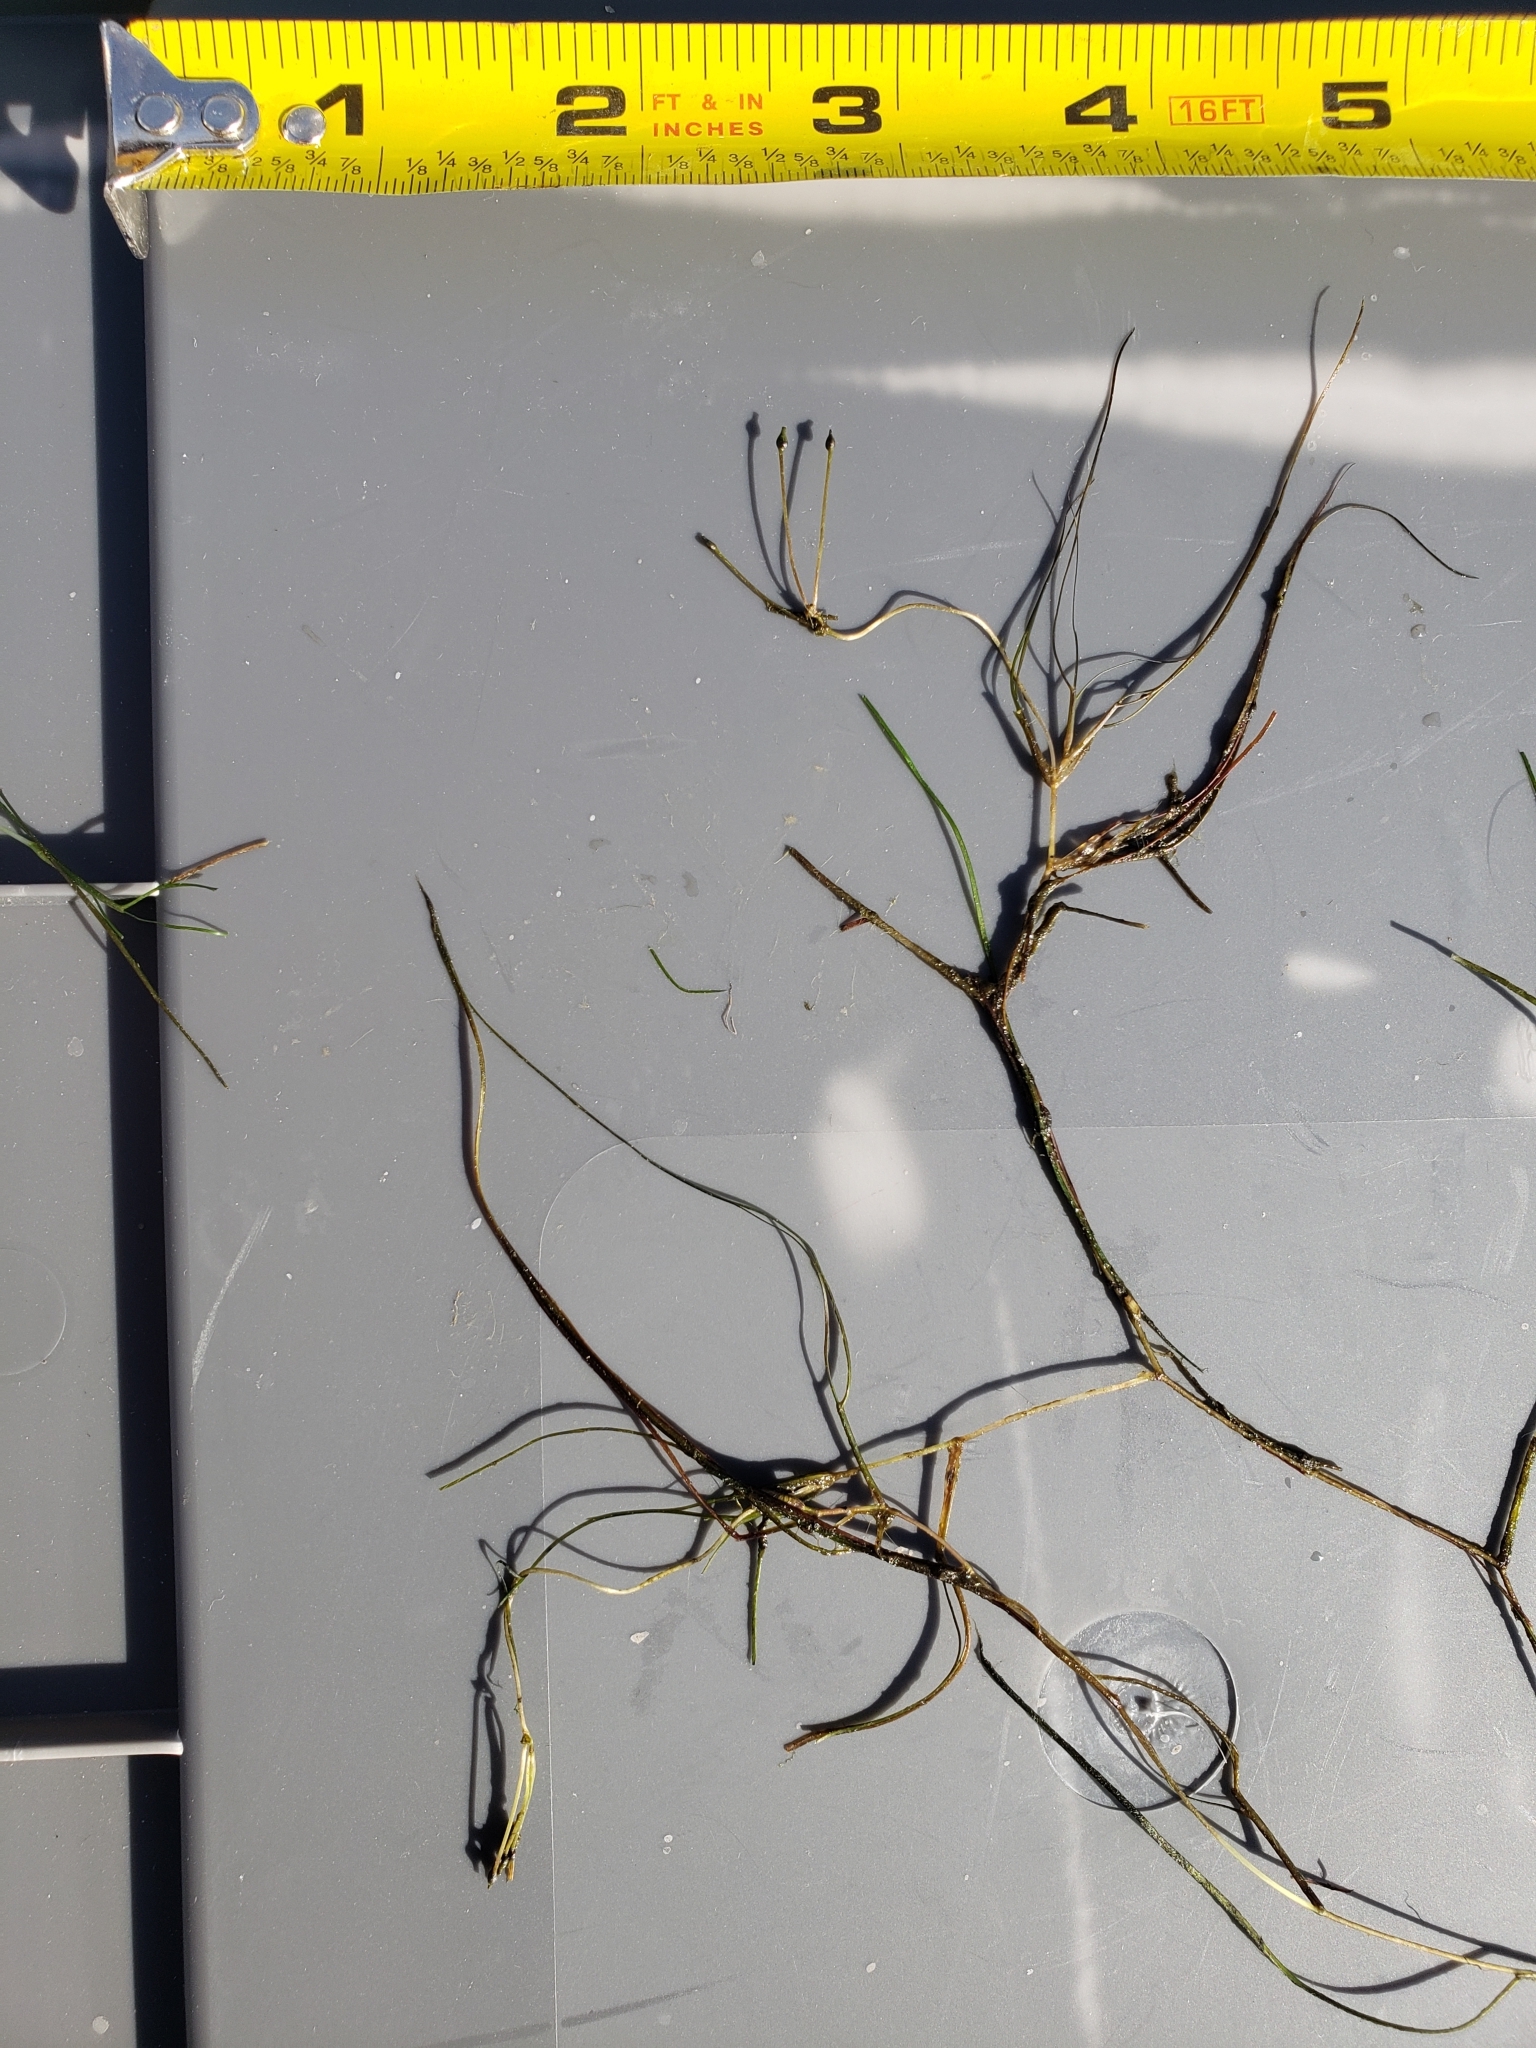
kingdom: Plantae
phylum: Tracheophyta
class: Liliopsida
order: Alismatales
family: Ruppiaceae
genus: Ruppia
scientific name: Ruppia maritima
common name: Beaked tasselweed
